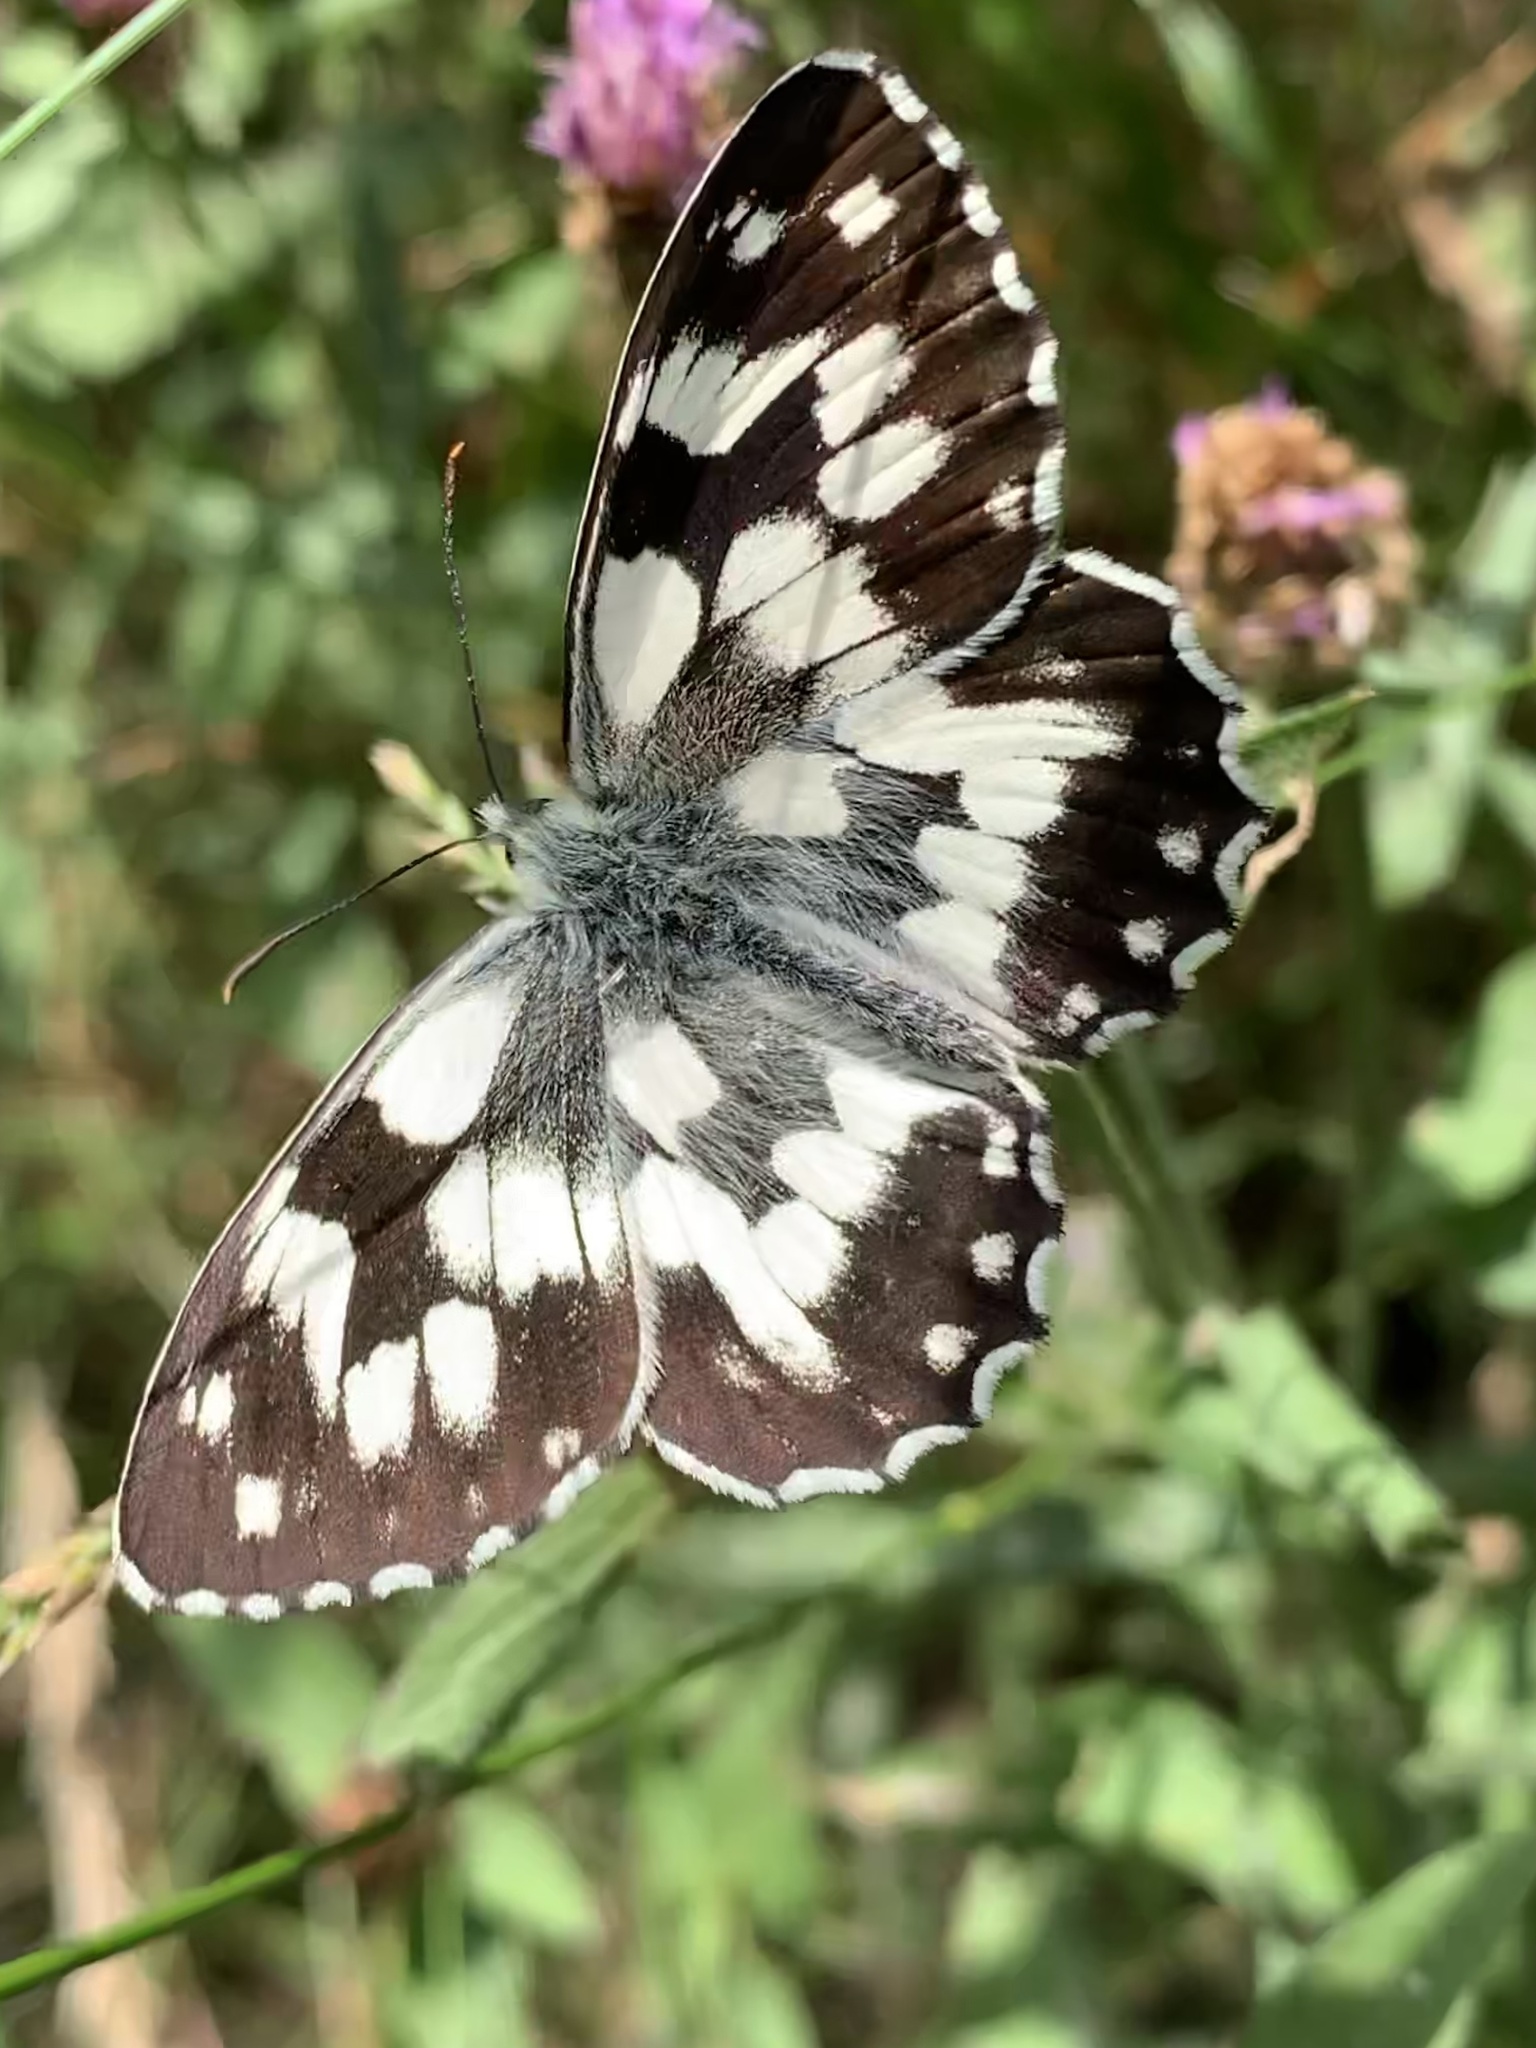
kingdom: Animalia
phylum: Arthropoda
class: Insecta
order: Lepidoptera
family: Nymphalidae
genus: Melanargia
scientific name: Melanargia galathea
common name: Marbled white
